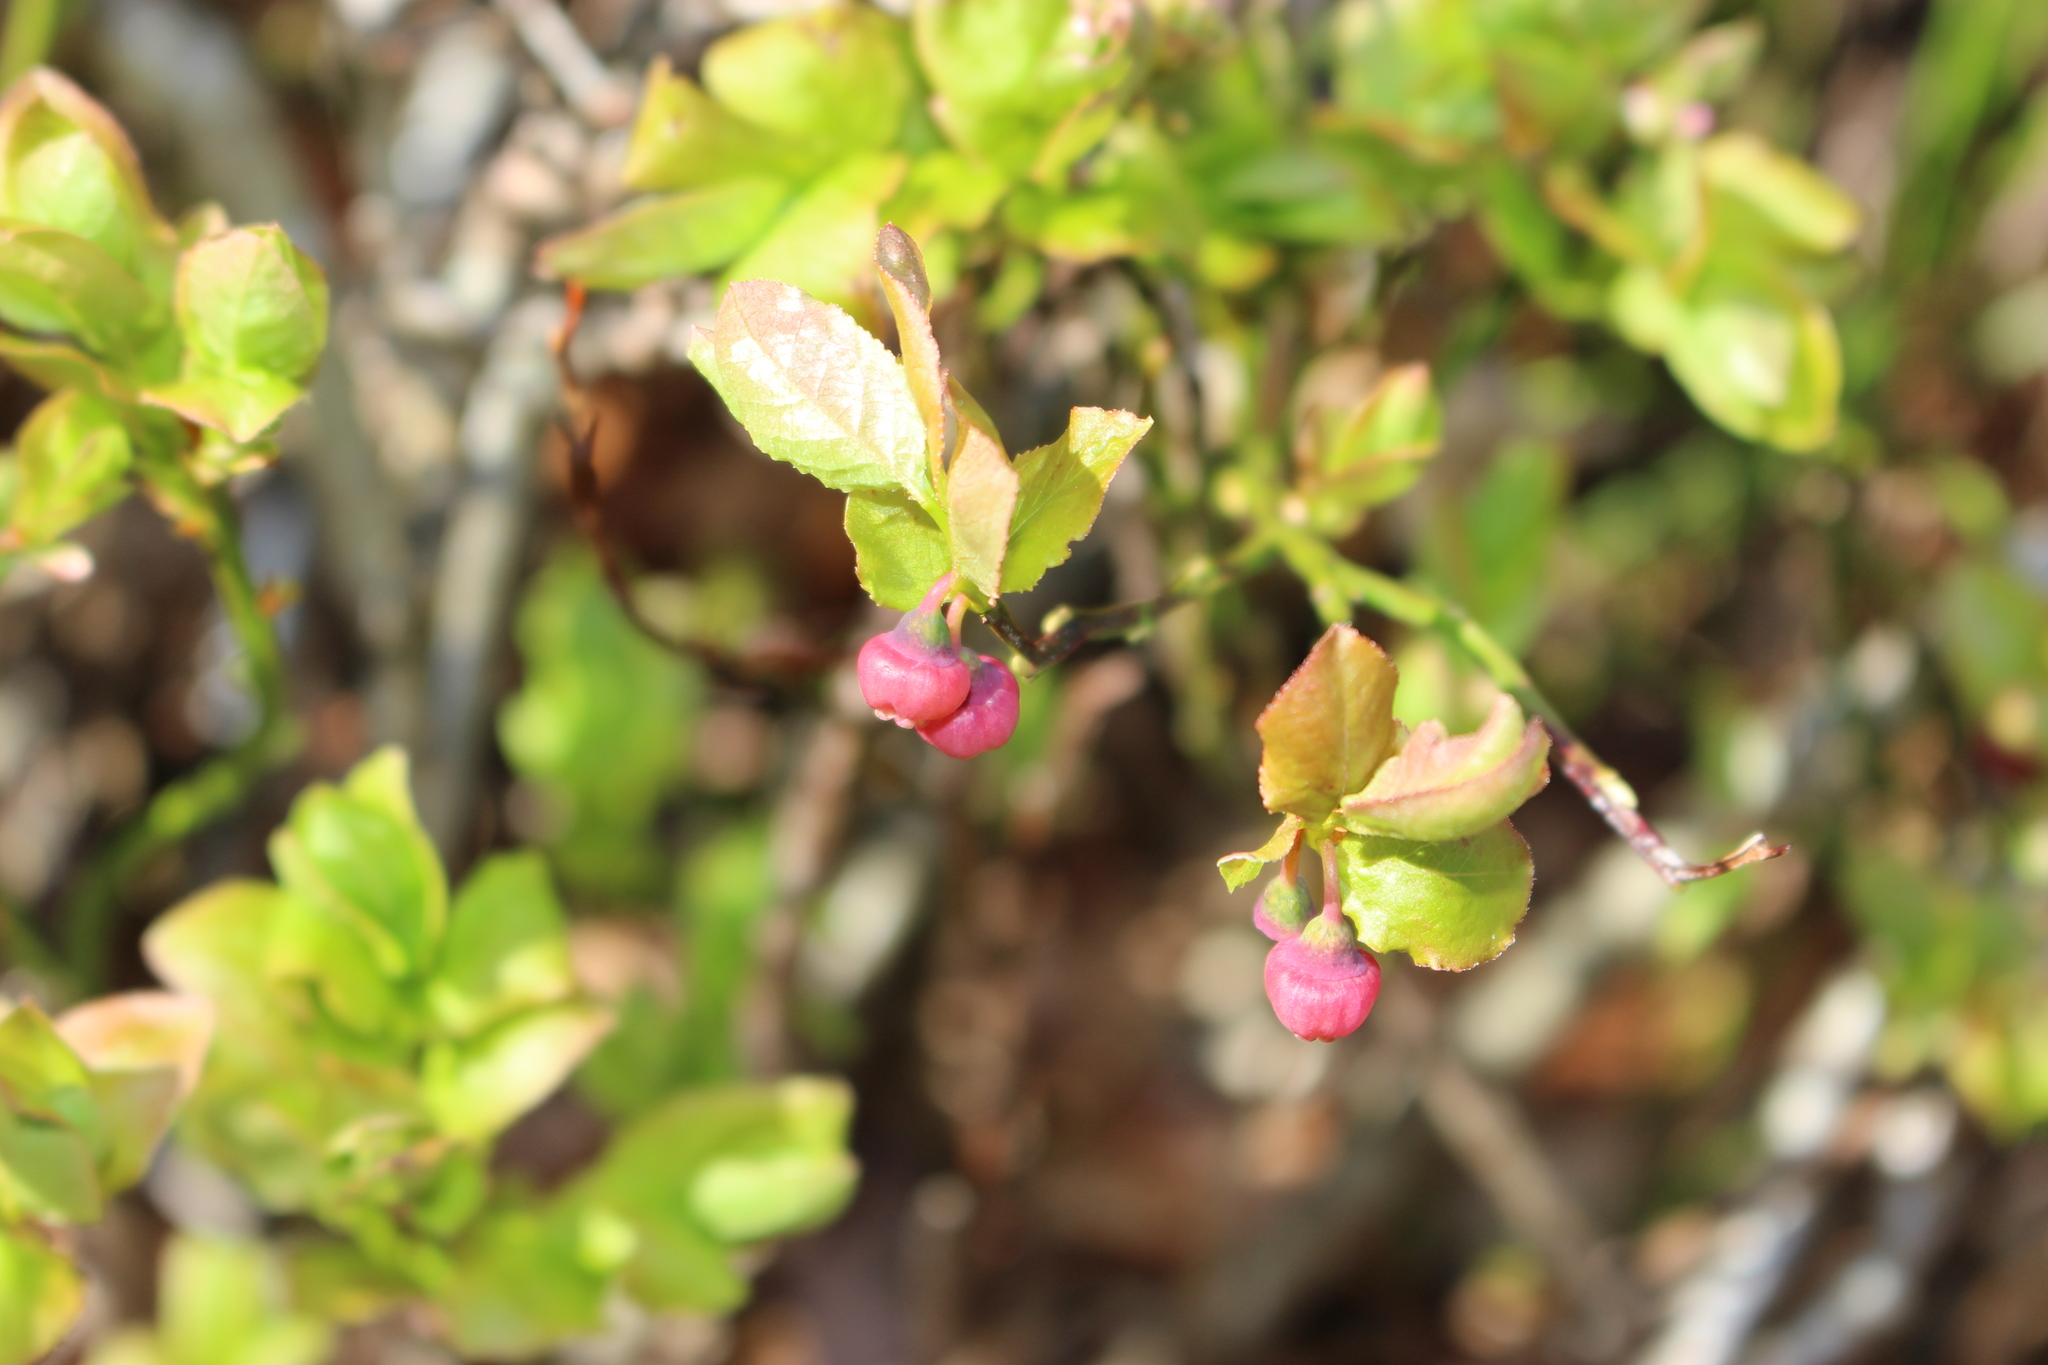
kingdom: Plantae
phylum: Tracheophyta
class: Magnoliopsida
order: Ericales
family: Ericaceae
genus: Vaccinium
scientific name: Vaccinium myrtillus
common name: Bilberry
